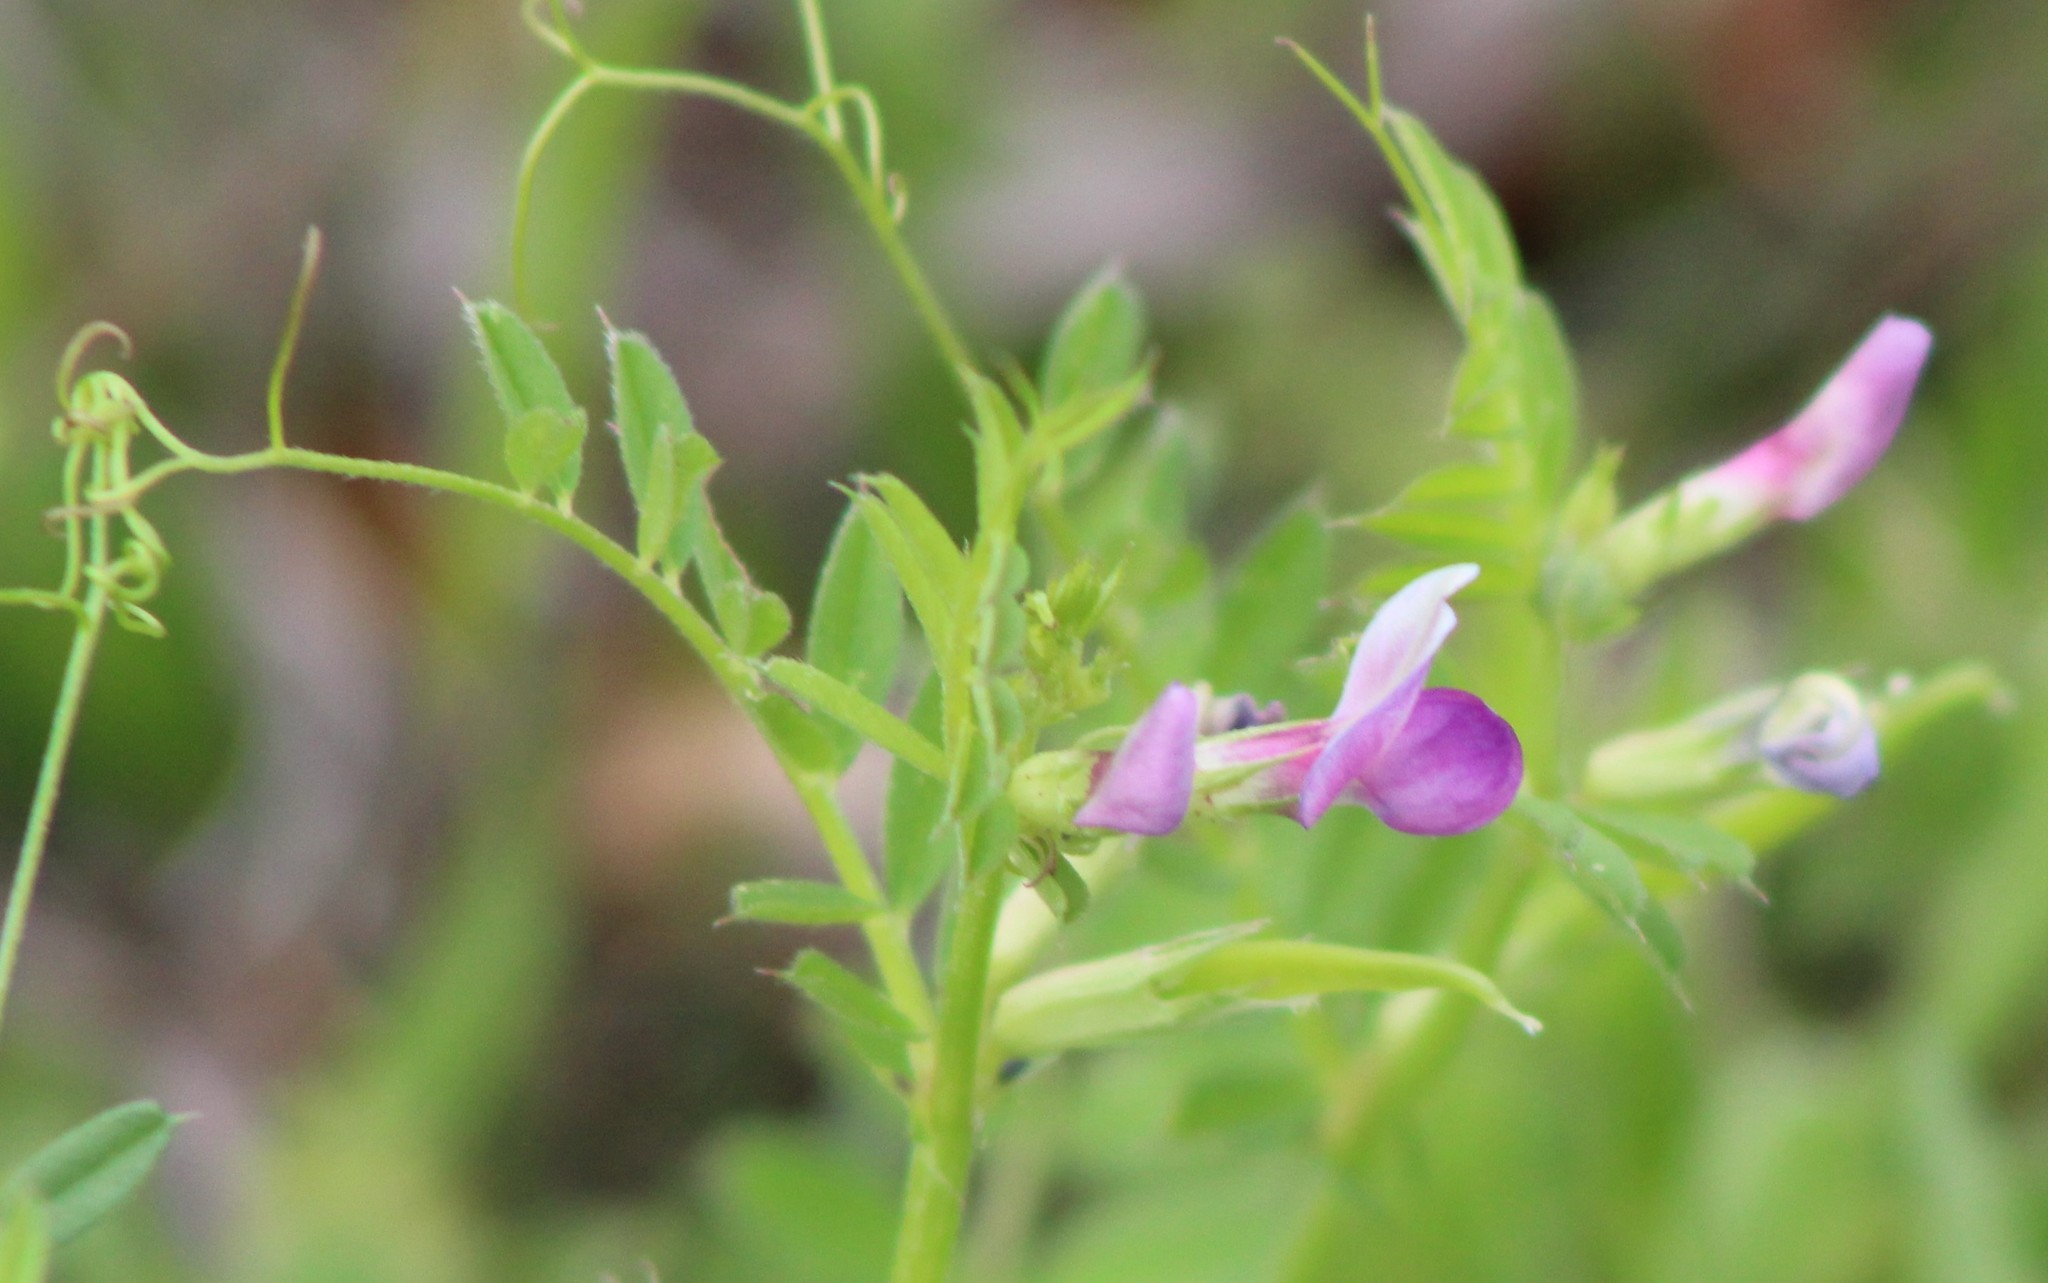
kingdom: Plantae
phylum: Tracheophyta
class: Magnoliopsida
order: Fabales
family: Fabaceae
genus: Vicia
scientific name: Vicia sativa
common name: Garden vetch
